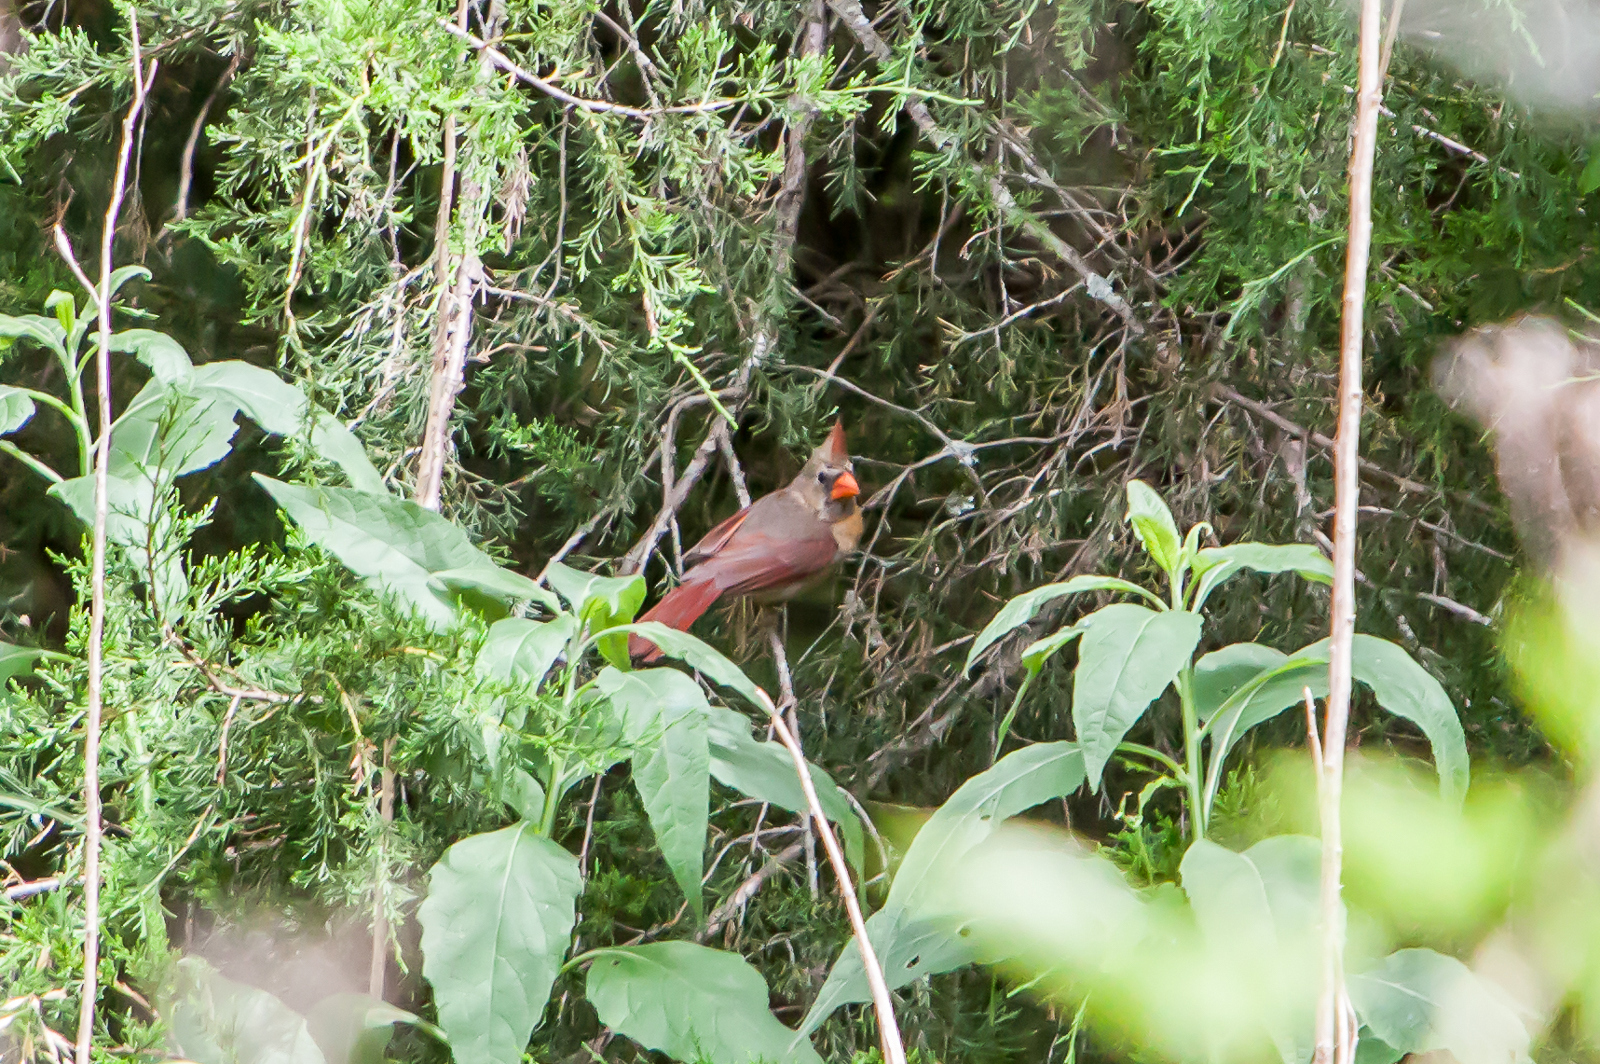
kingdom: Animalia
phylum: Chordata
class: Aves
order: Passeriformes
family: Cardinalidae
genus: Cardinalis
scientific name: Cardinalis cardinalis
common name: Northern cardinal
